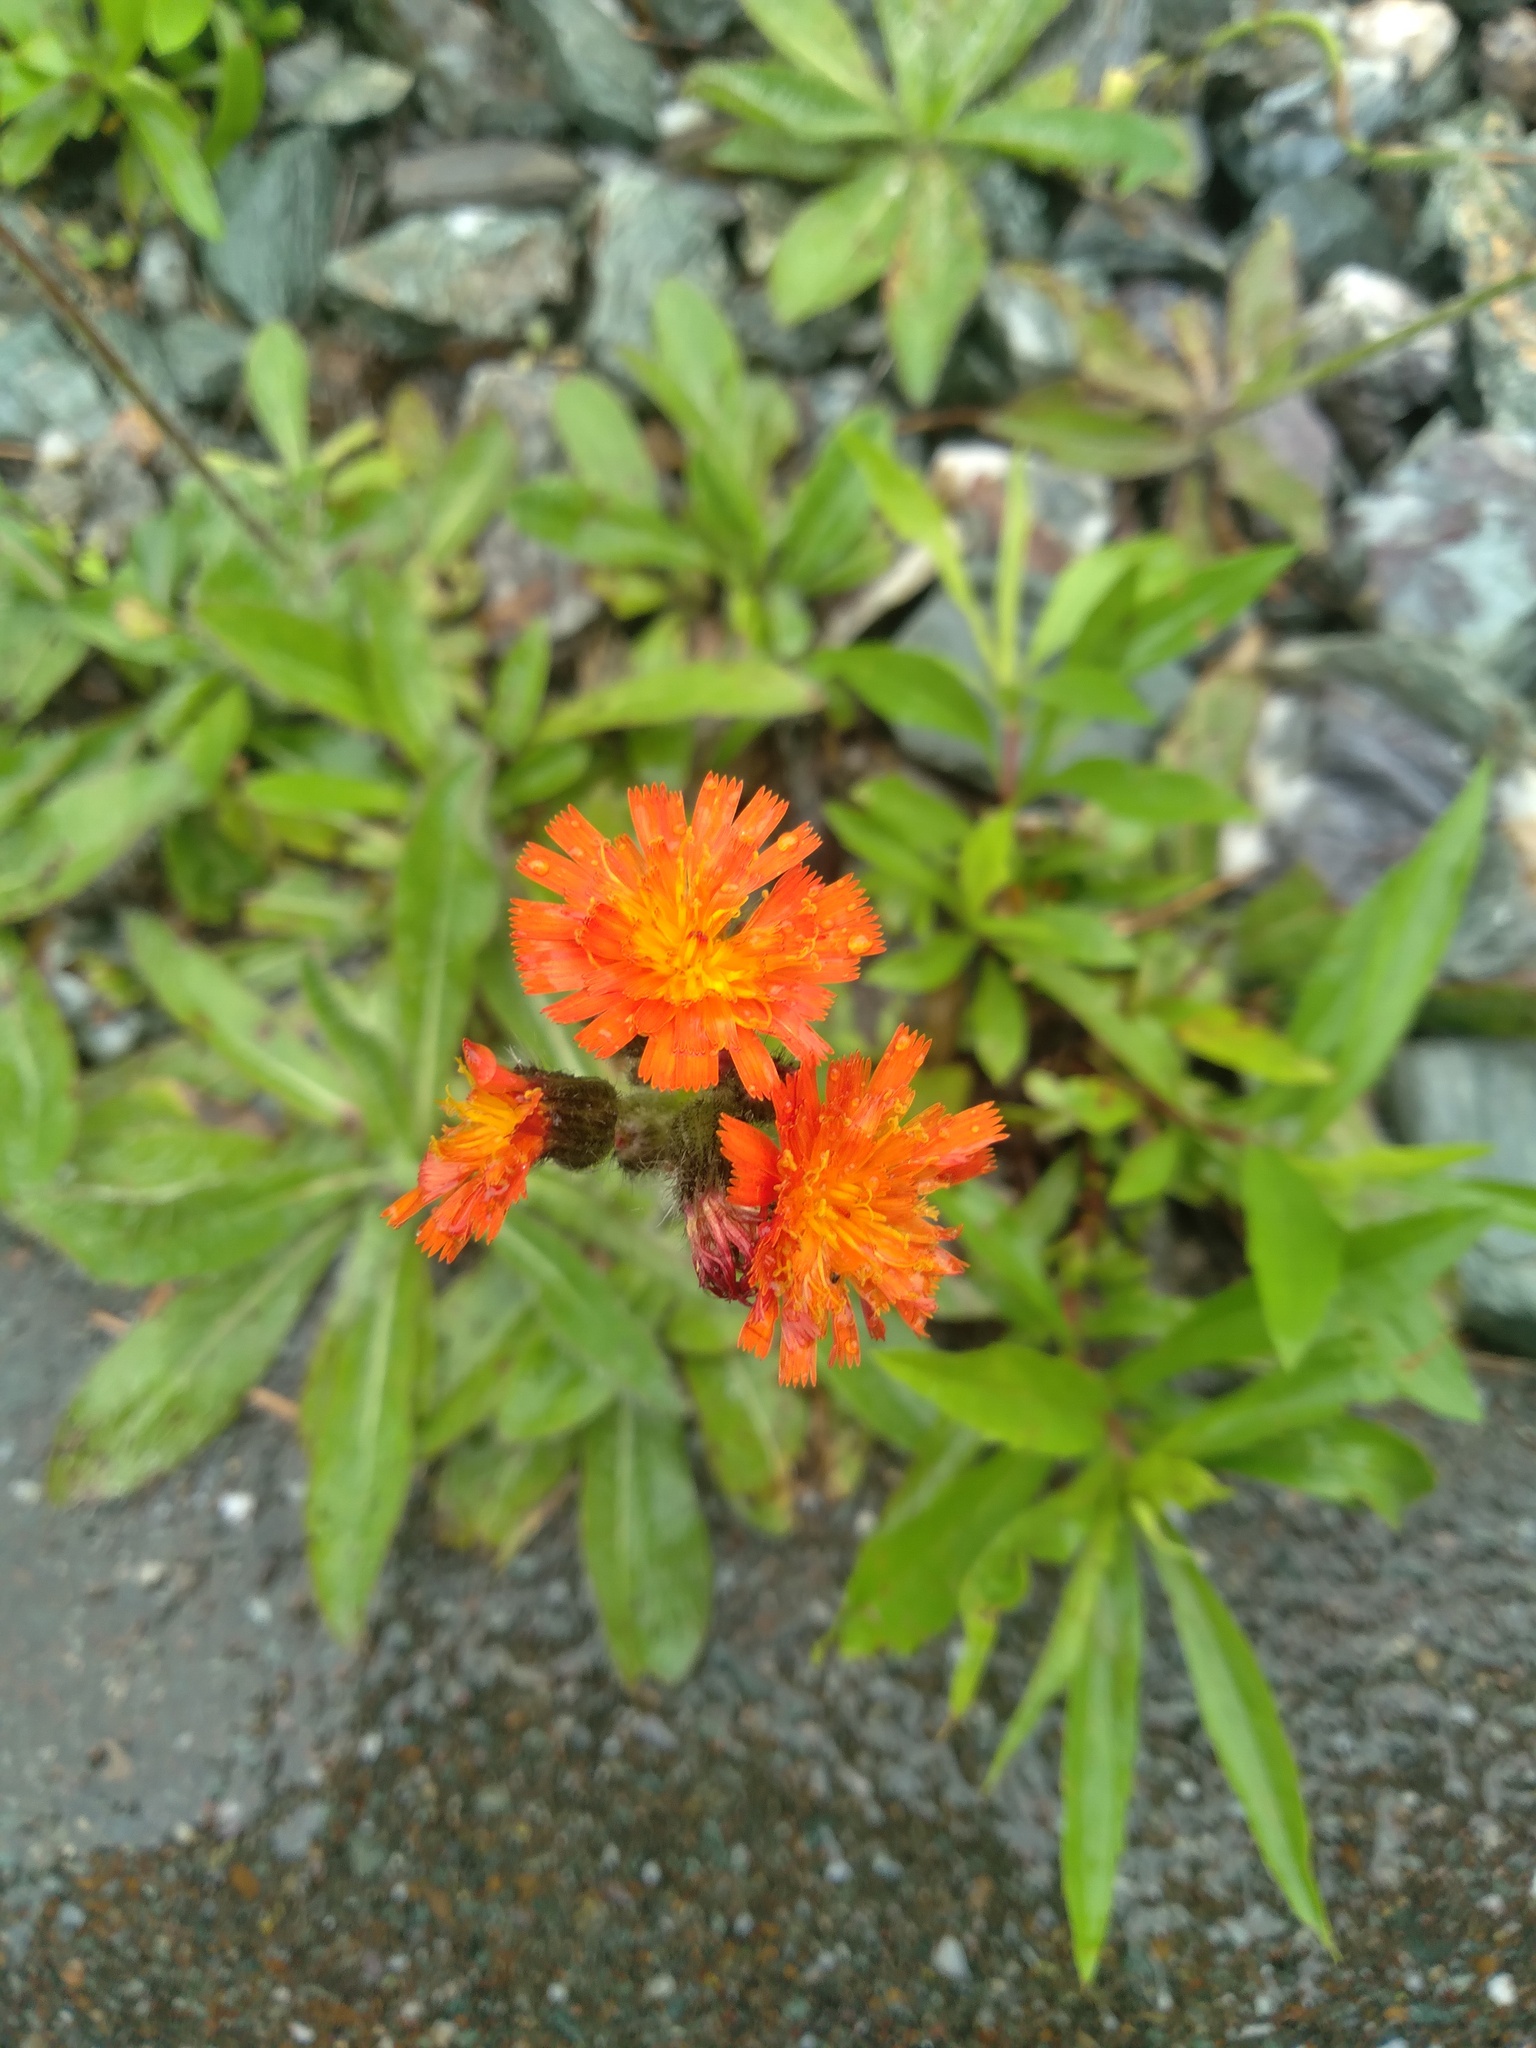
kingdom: Plantae
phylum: Tracheophyta
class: Magnoliopsida
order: Asterales
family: Asteraceae
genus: Pilosella
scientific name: Pilosella aurantiaca
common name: Fox-and-cubs
